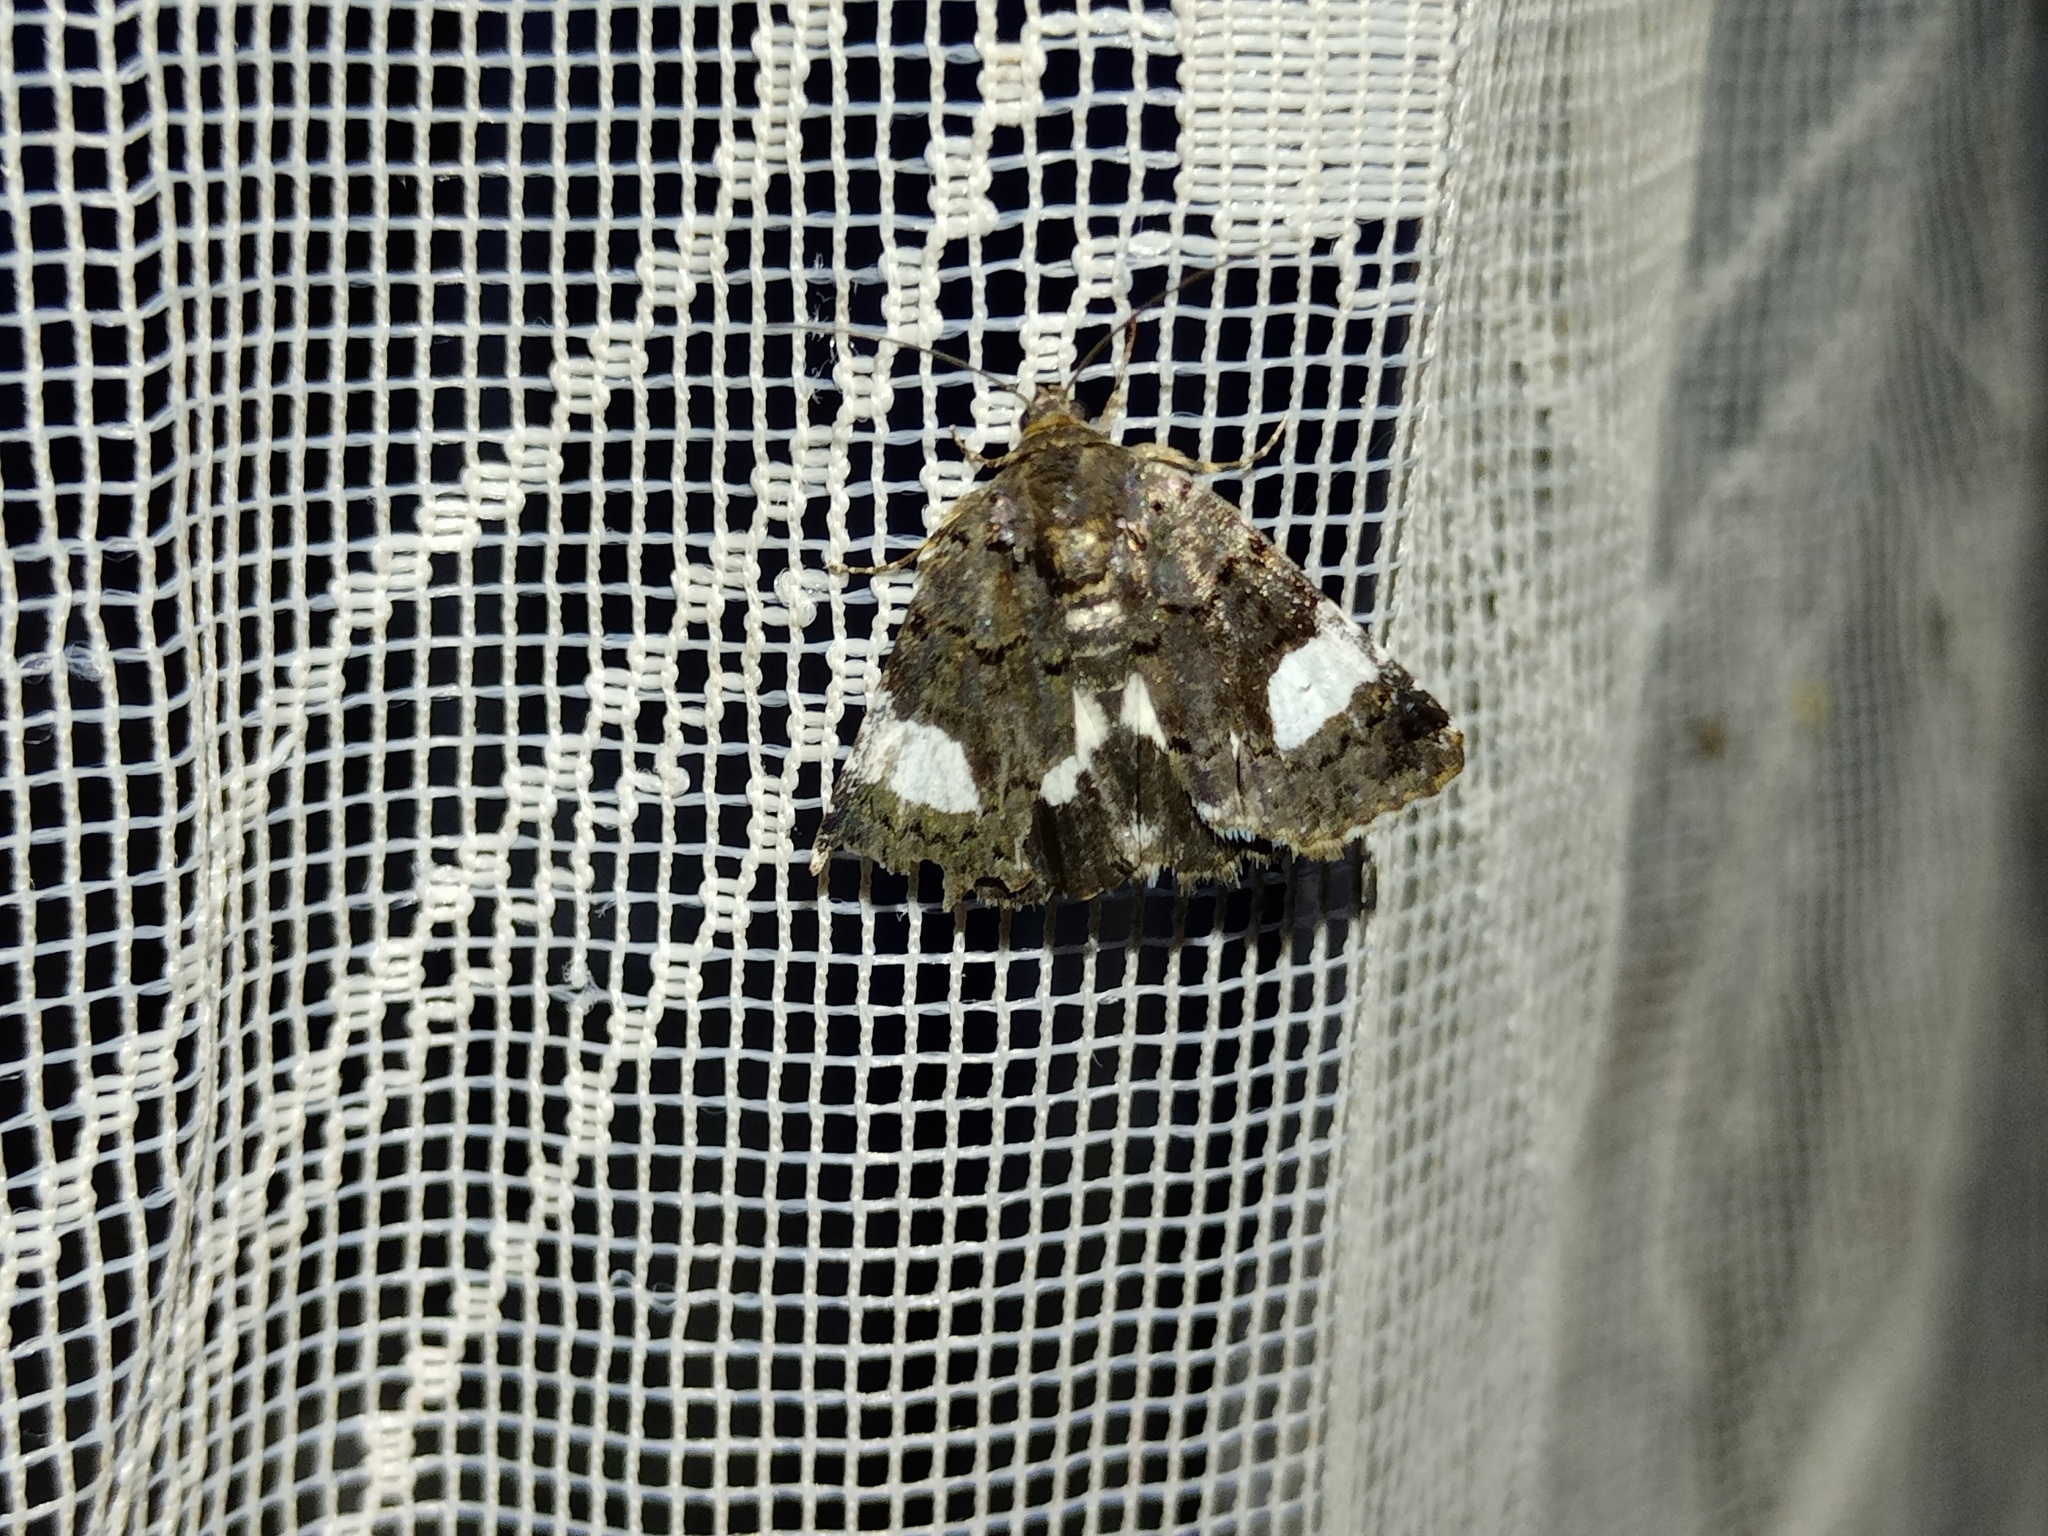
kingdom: Animalia
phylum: Arthropoda
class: Insecta
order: Lepidoptera
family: Erebidae
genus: Tyta
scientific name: Tyta luctuosa
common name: Four-spotted
